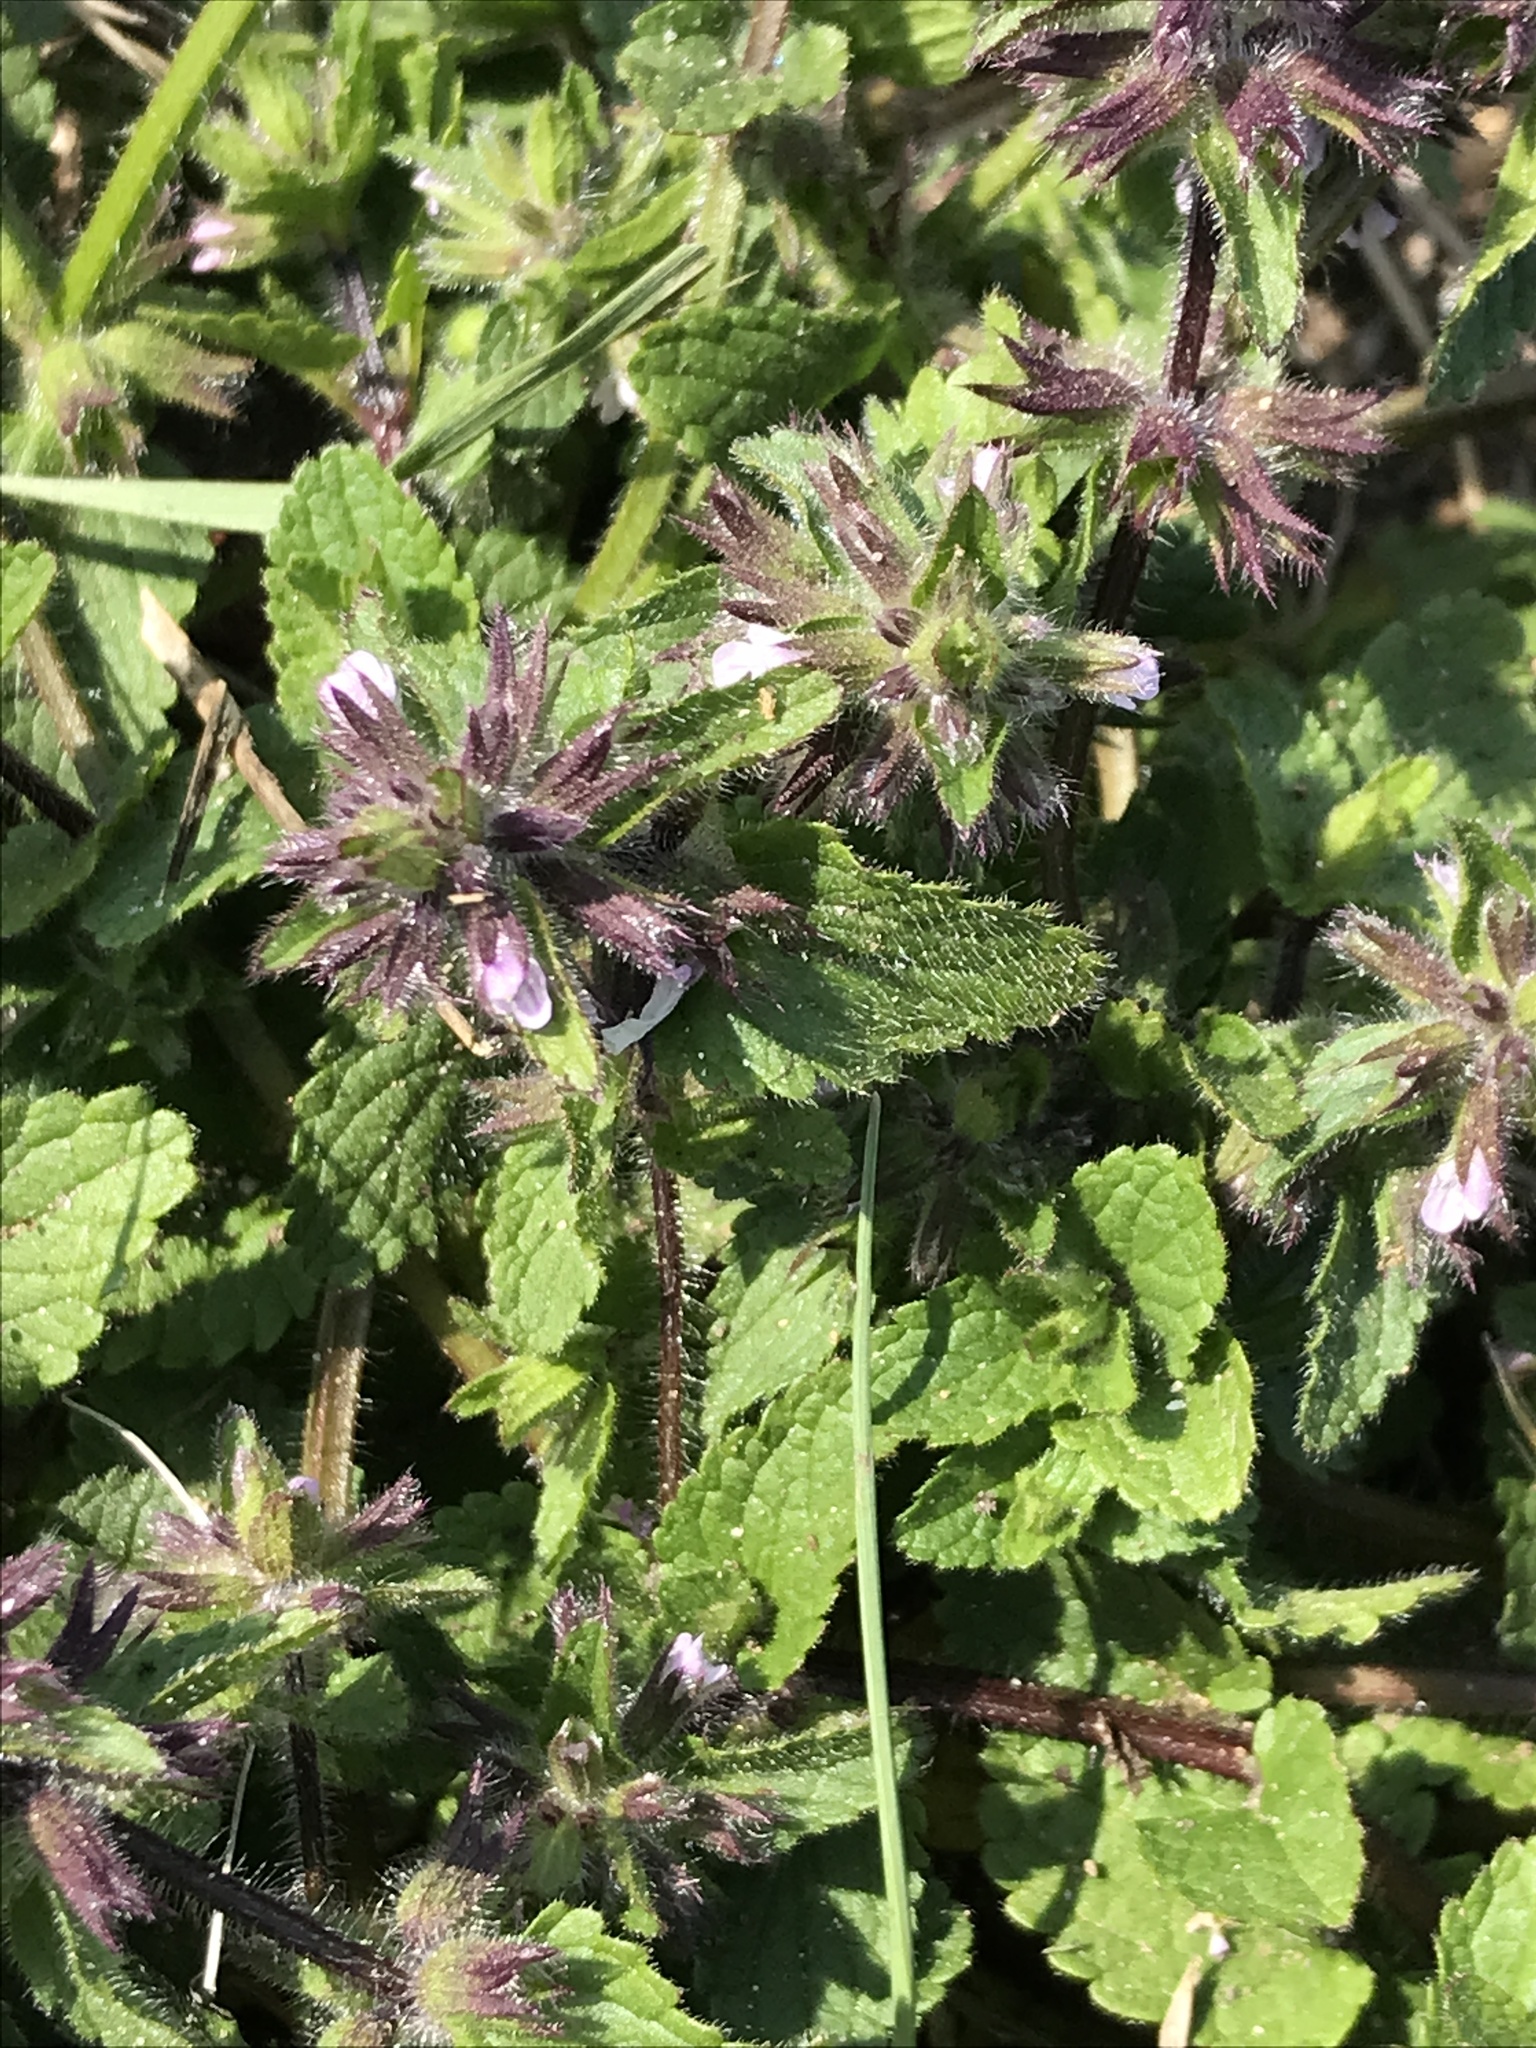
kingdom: Plantae
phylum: Tracheophyta
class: Magnoliopsida
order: Lamiales
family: Lamiaceae
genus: Stachys
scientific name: Stachys arvensis
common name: Field woundwort
